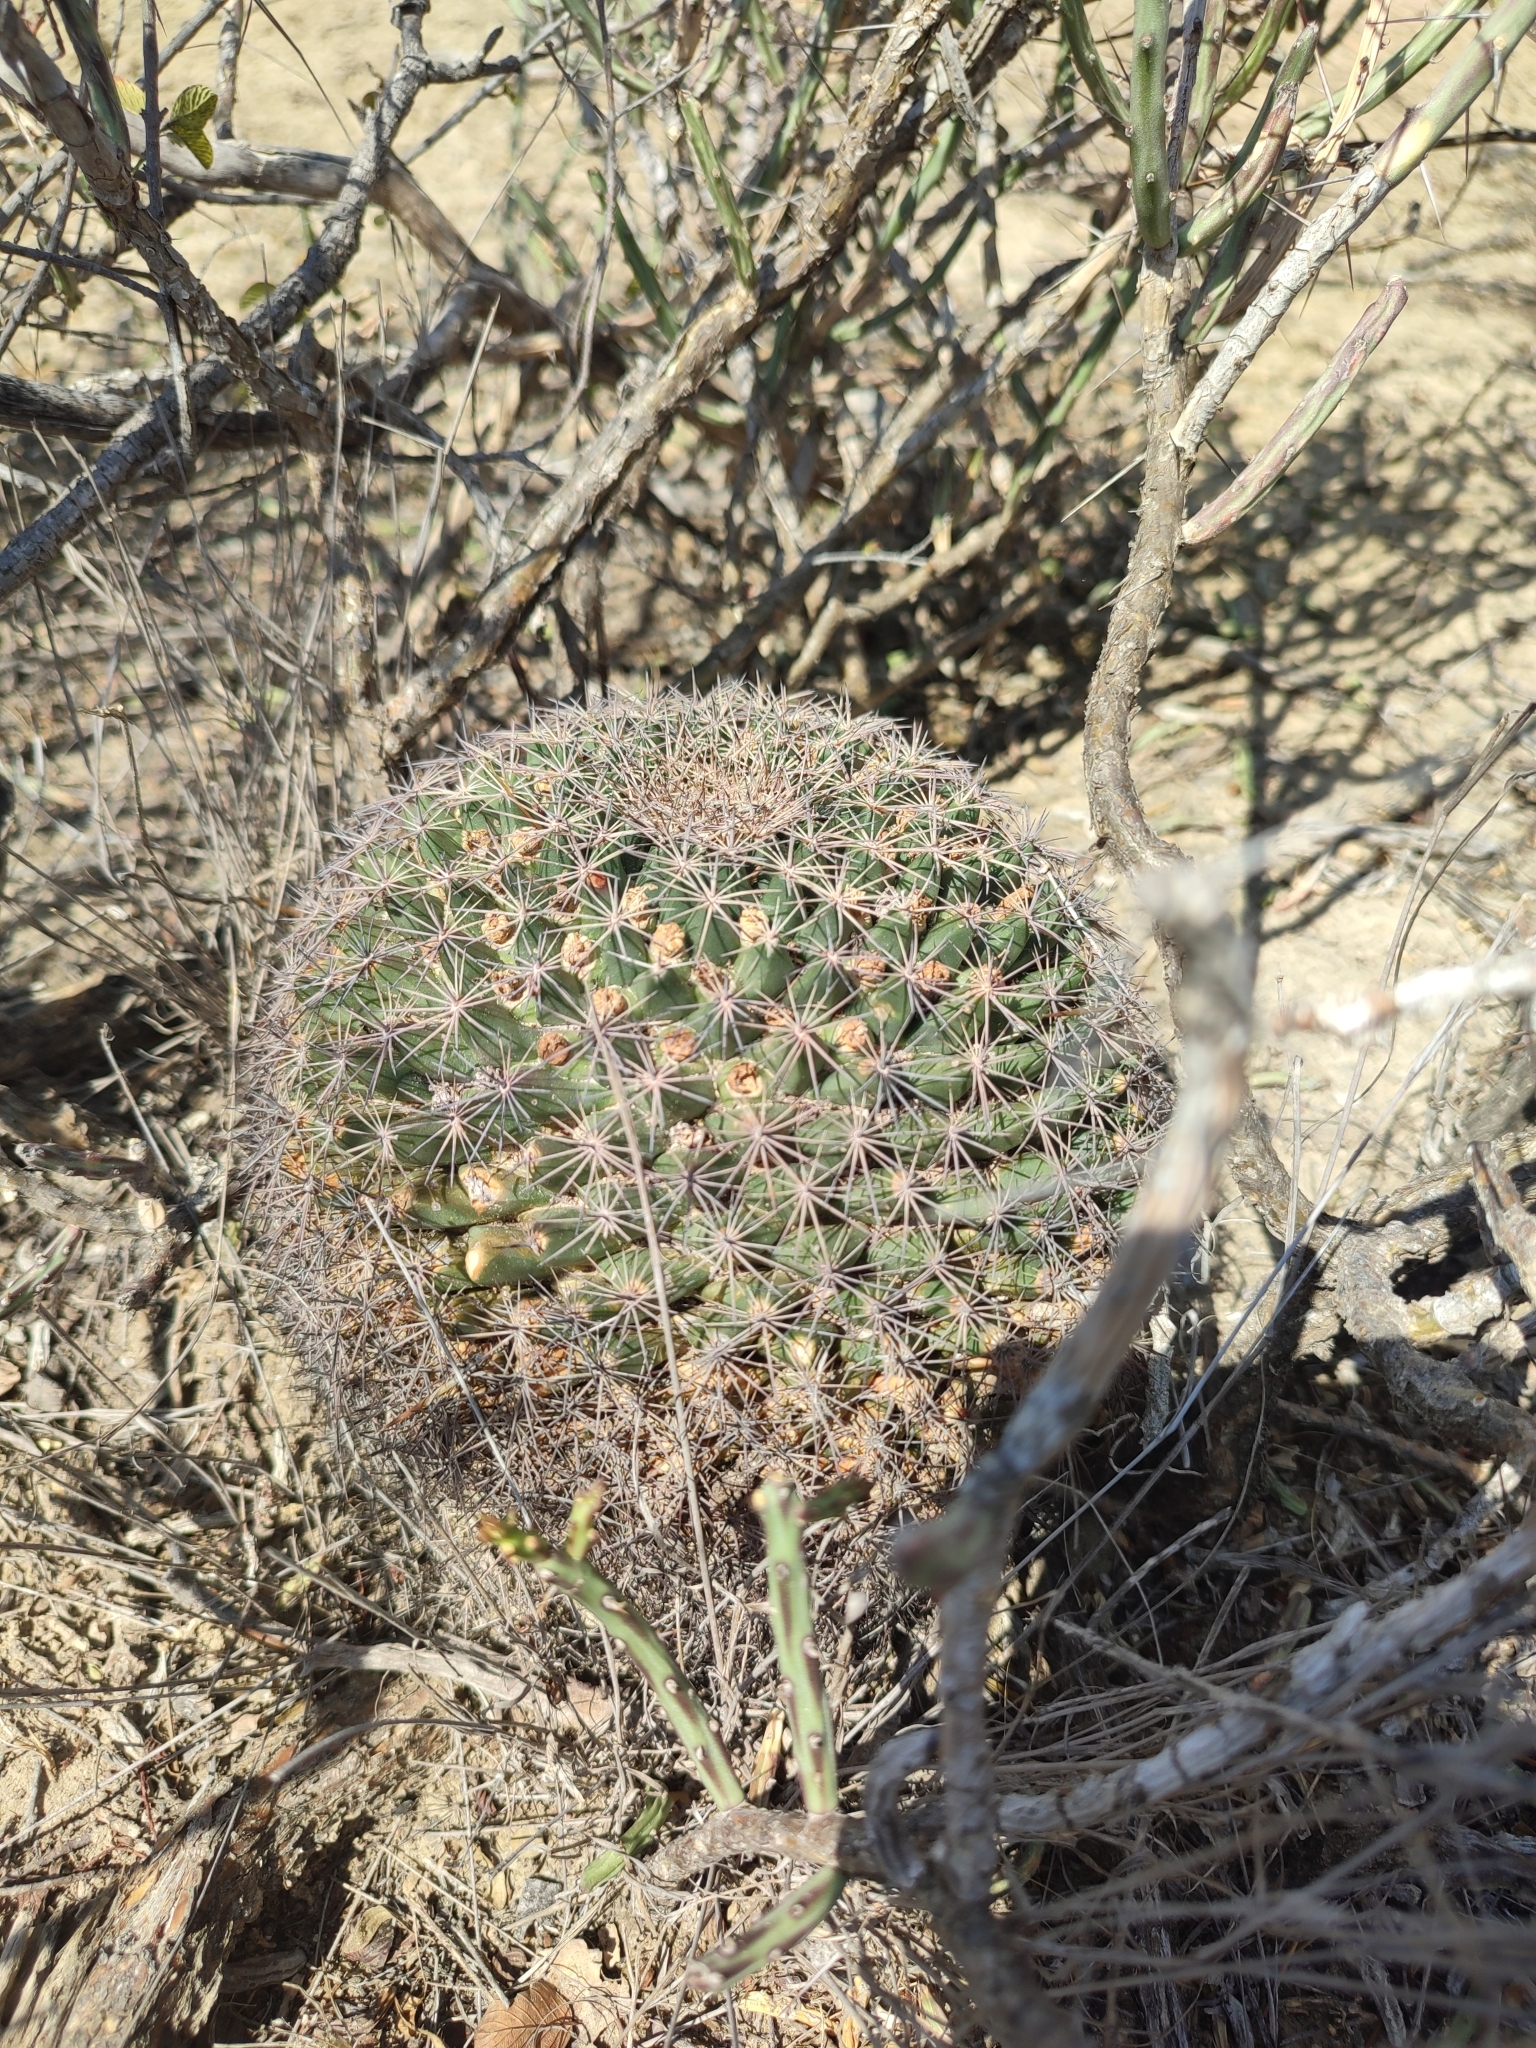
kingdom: Plantae
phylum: Tracheophyta
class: Magnoliopsida
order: Caryophyllales
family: Cactaceae
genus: Mammillaria
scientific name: Mammillaria heyderi
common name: Little nipple cactus
